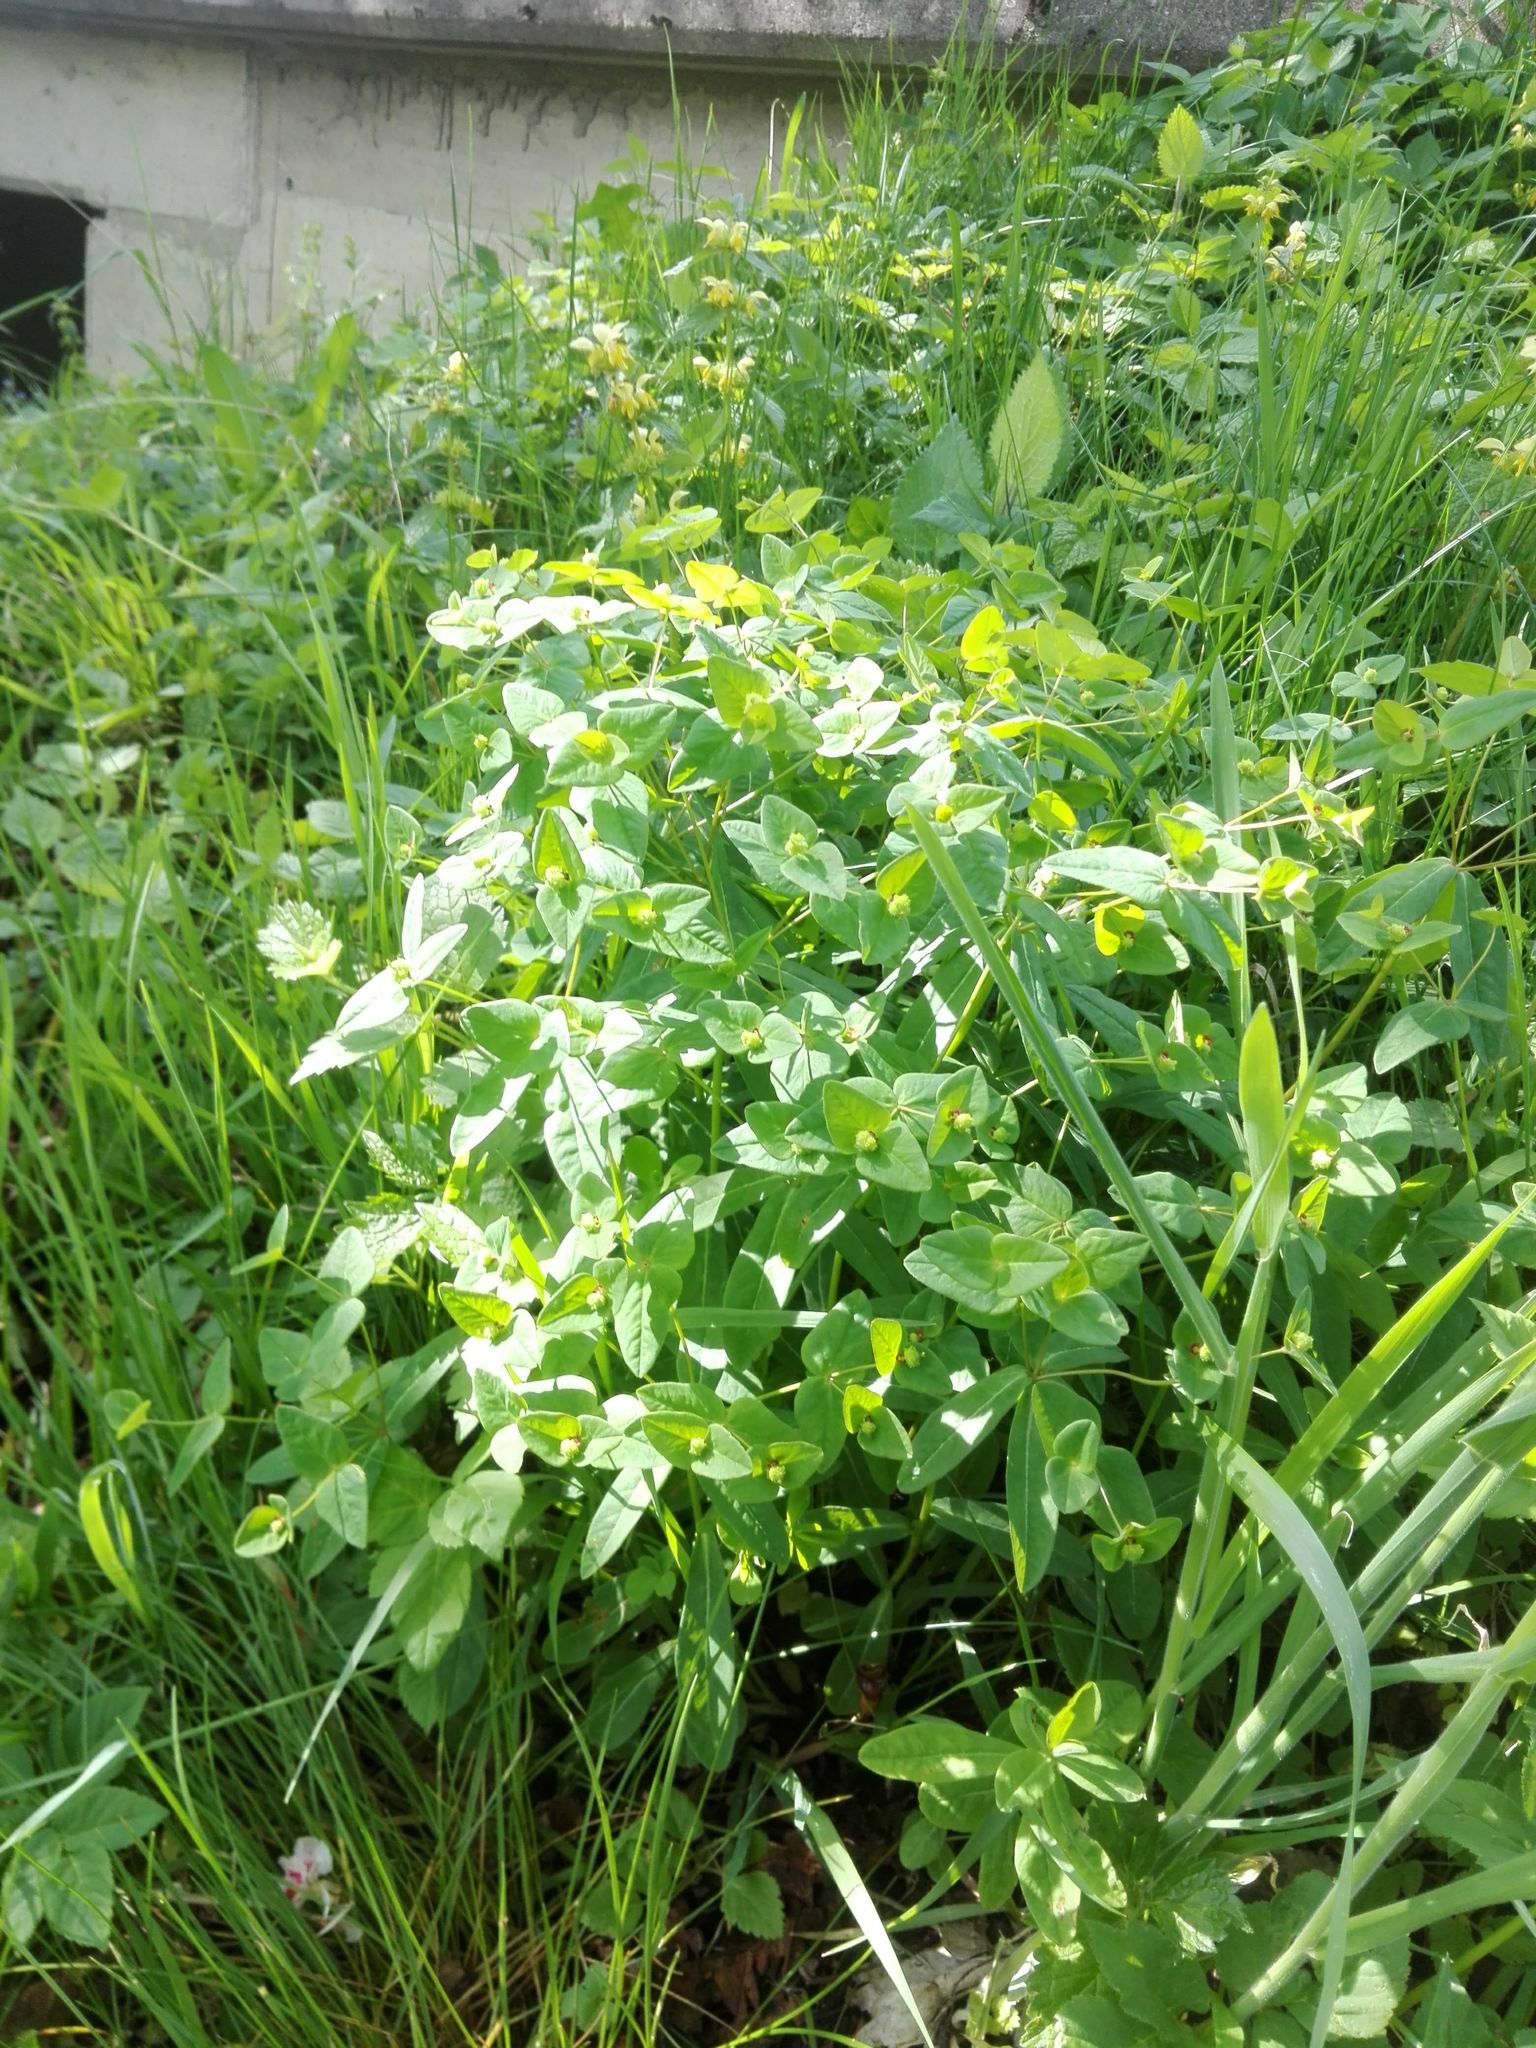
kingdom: Plantae
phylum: Tracheophyta
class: Magnoliopsida
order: Malpighiales
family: Euphorbiaceae
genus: Euphorbia
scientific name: Euphorbia dulcis
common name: Sweet spurge
